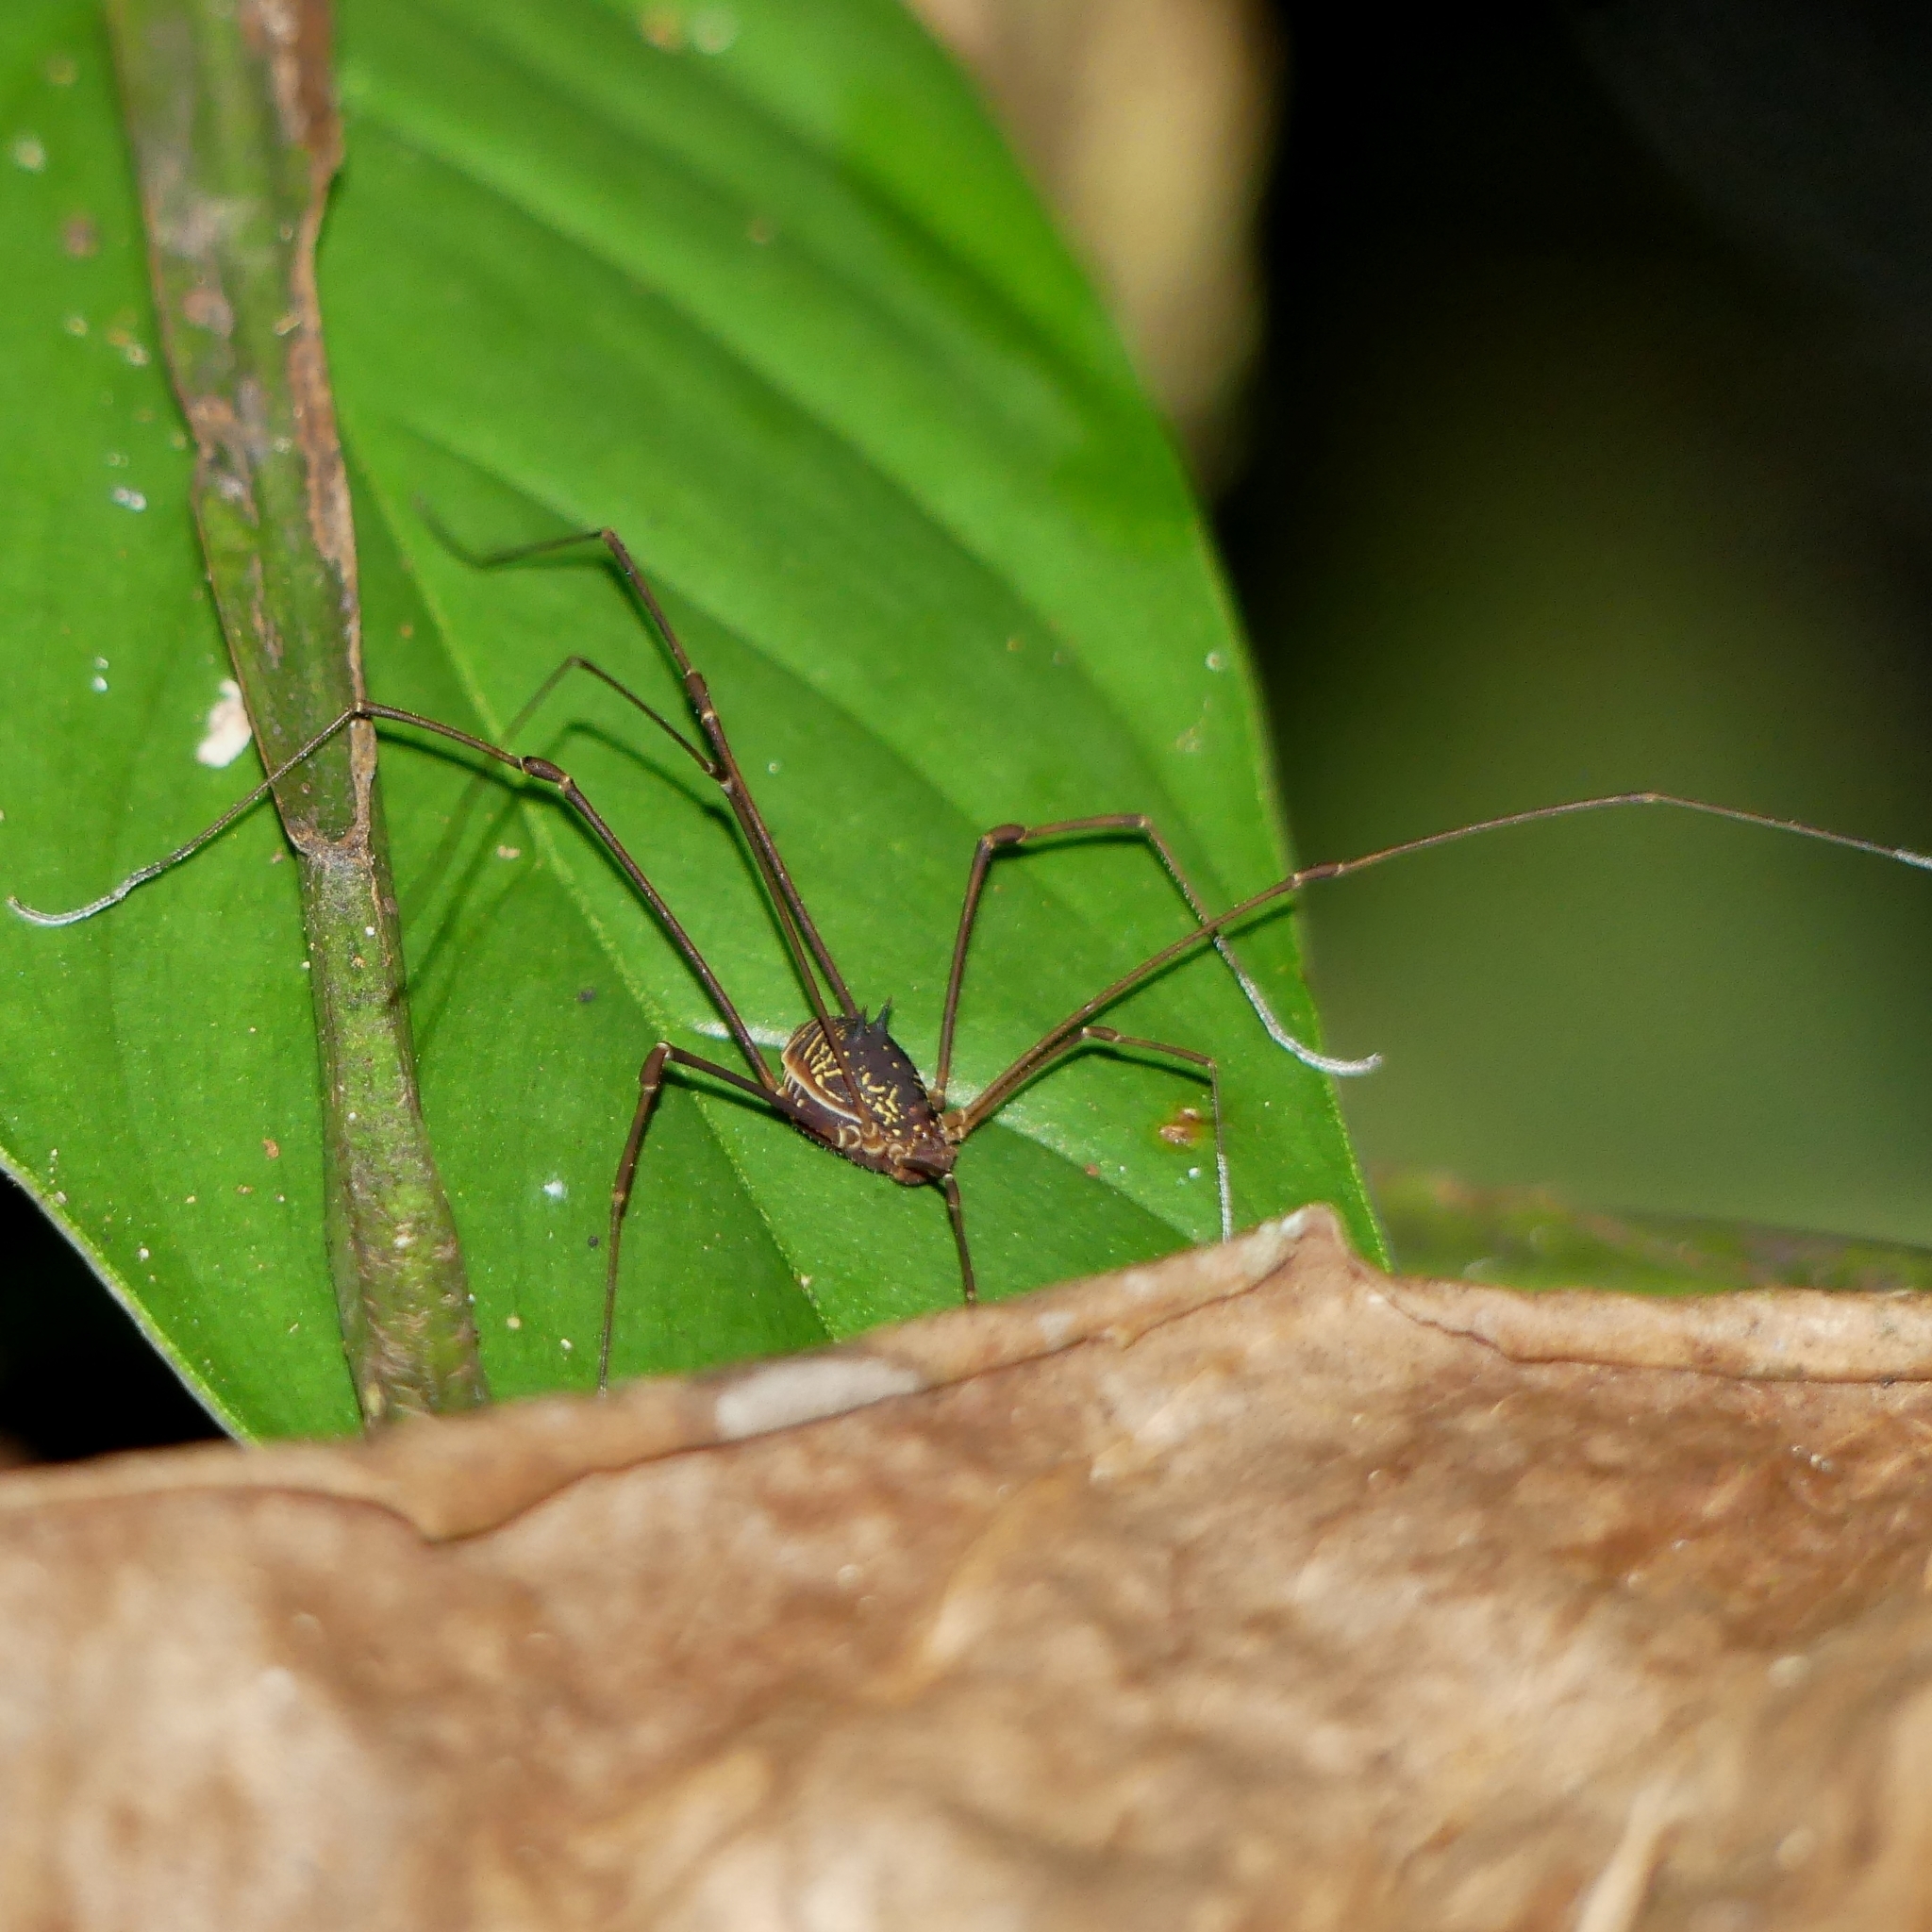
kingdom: Animalia
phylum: Arthropoda
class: Arachnida
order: Opiliones
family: Cosmetidae
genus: Paecilaema
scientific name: Paecilaema sigillatum
